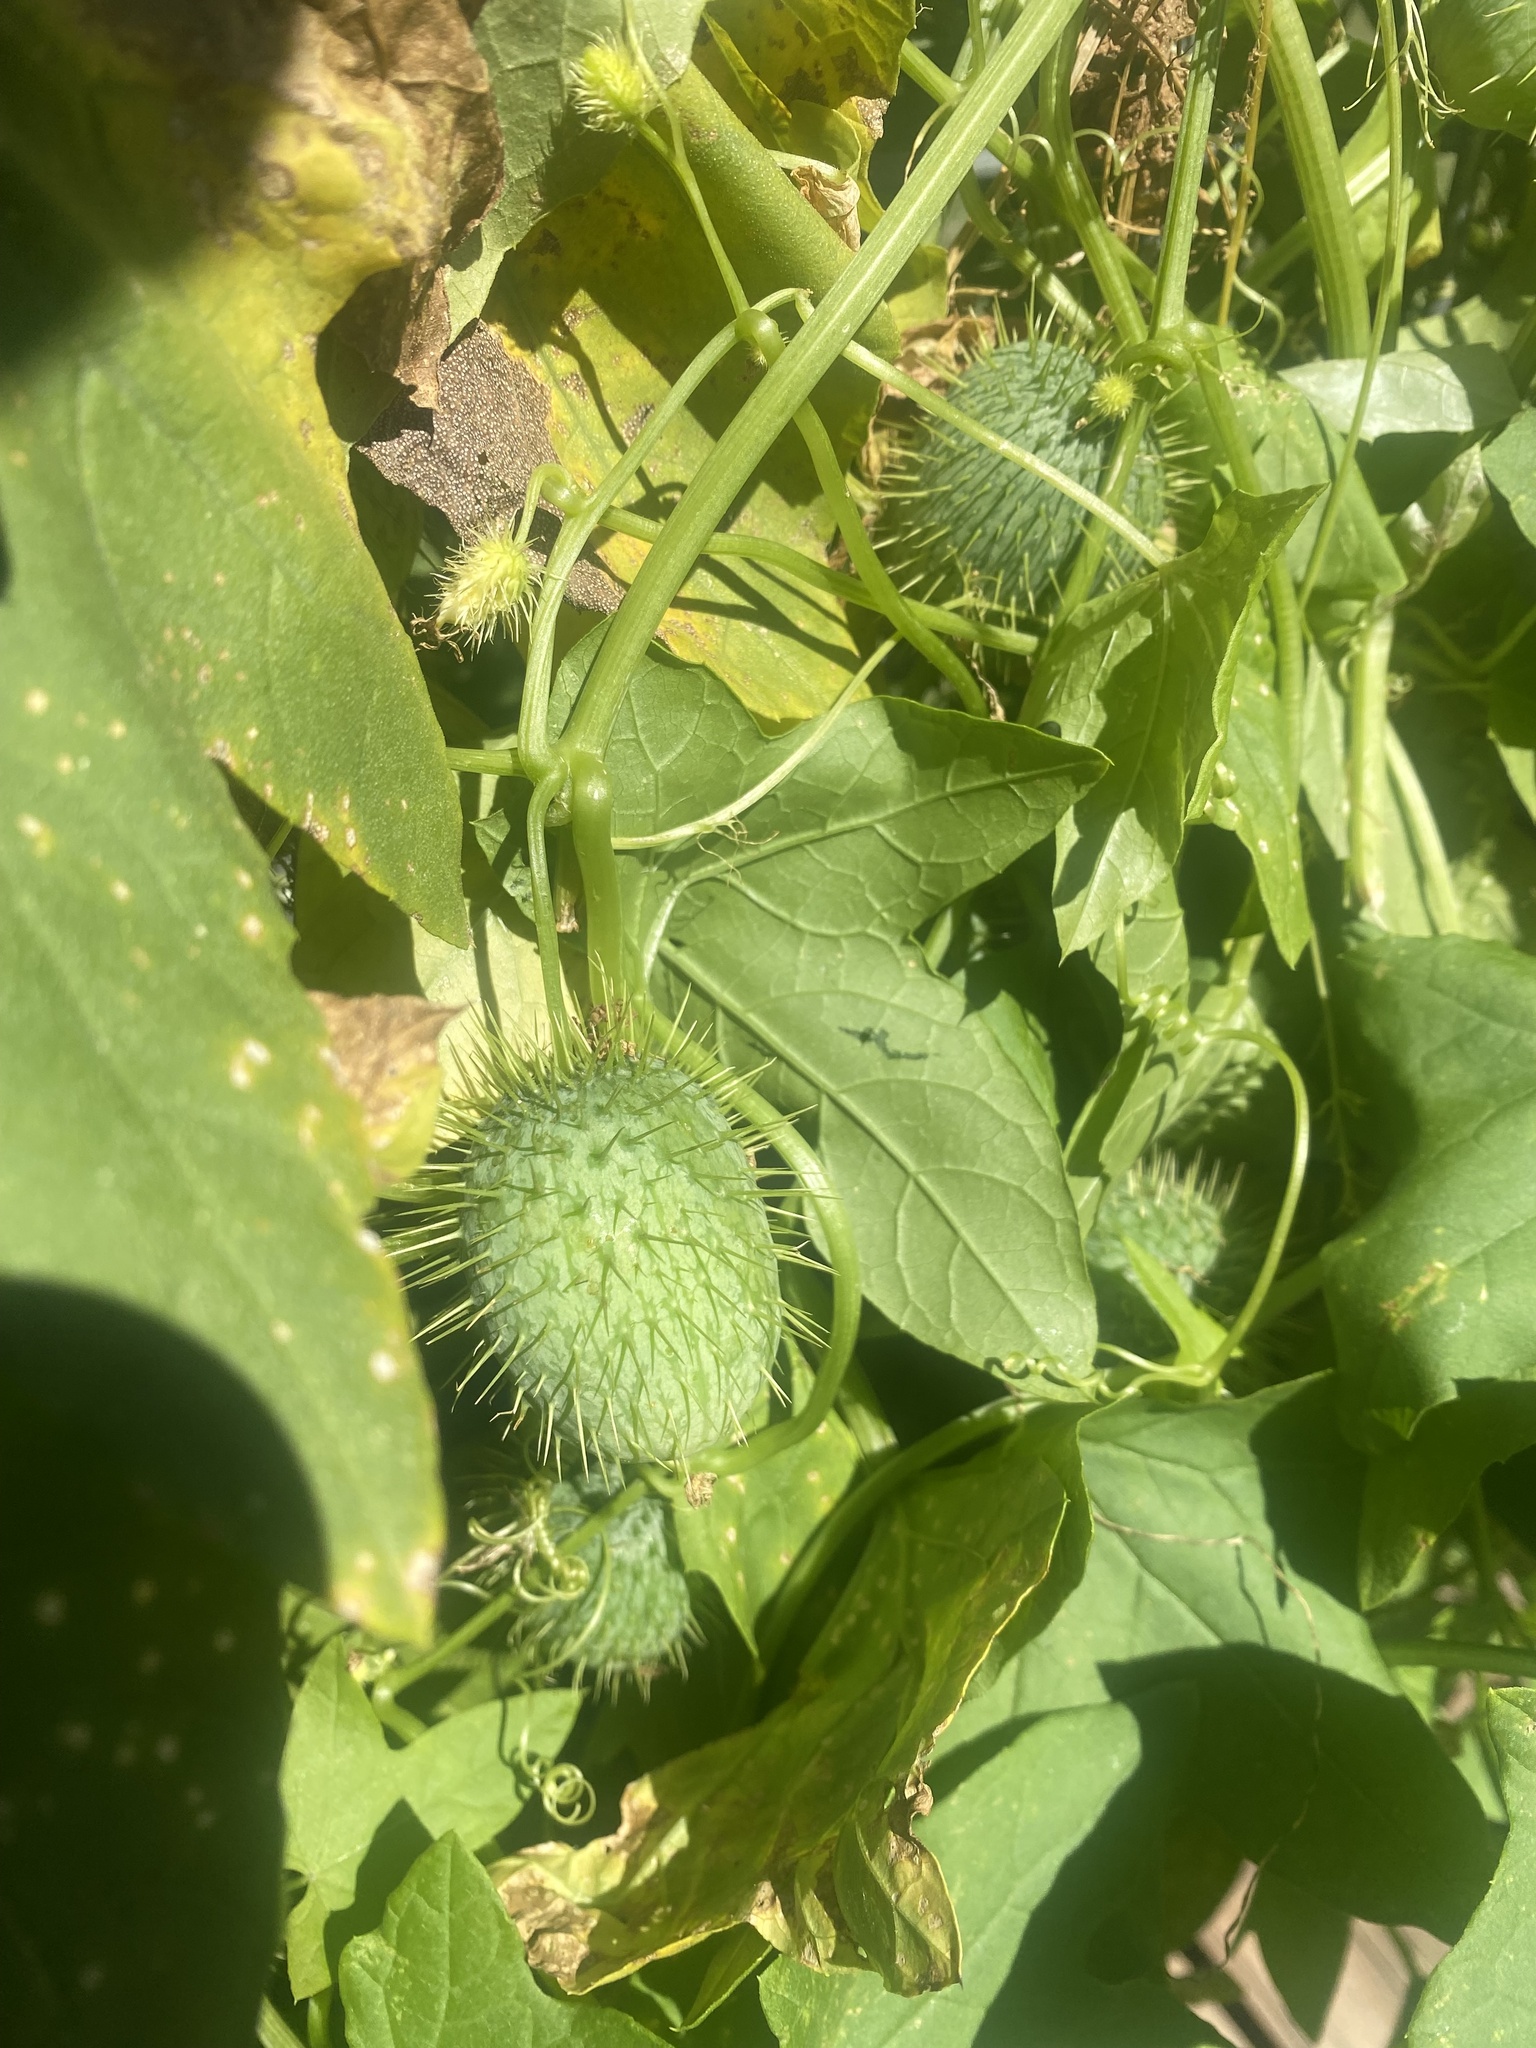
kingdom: Plantae
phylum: Tracheophyta
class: Magnoliopsida
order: Cucurbitales
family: Cucurbitaceae
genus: Echinocystis
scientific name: Echinocystis lobata
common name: Wild cucumber
